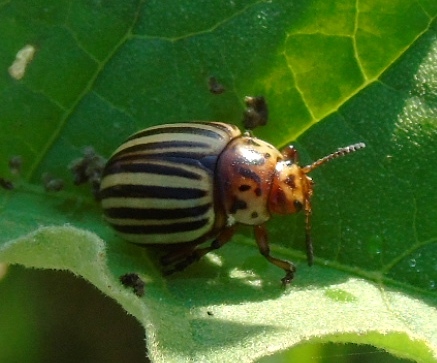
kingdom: Animalia
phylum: Arthropoda
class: Insecta
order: Coleoptera
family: Chrysomelidae
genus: Leptinotarsa
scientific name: Leptinotarsa decemlineata
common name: Colorado potato beetle
